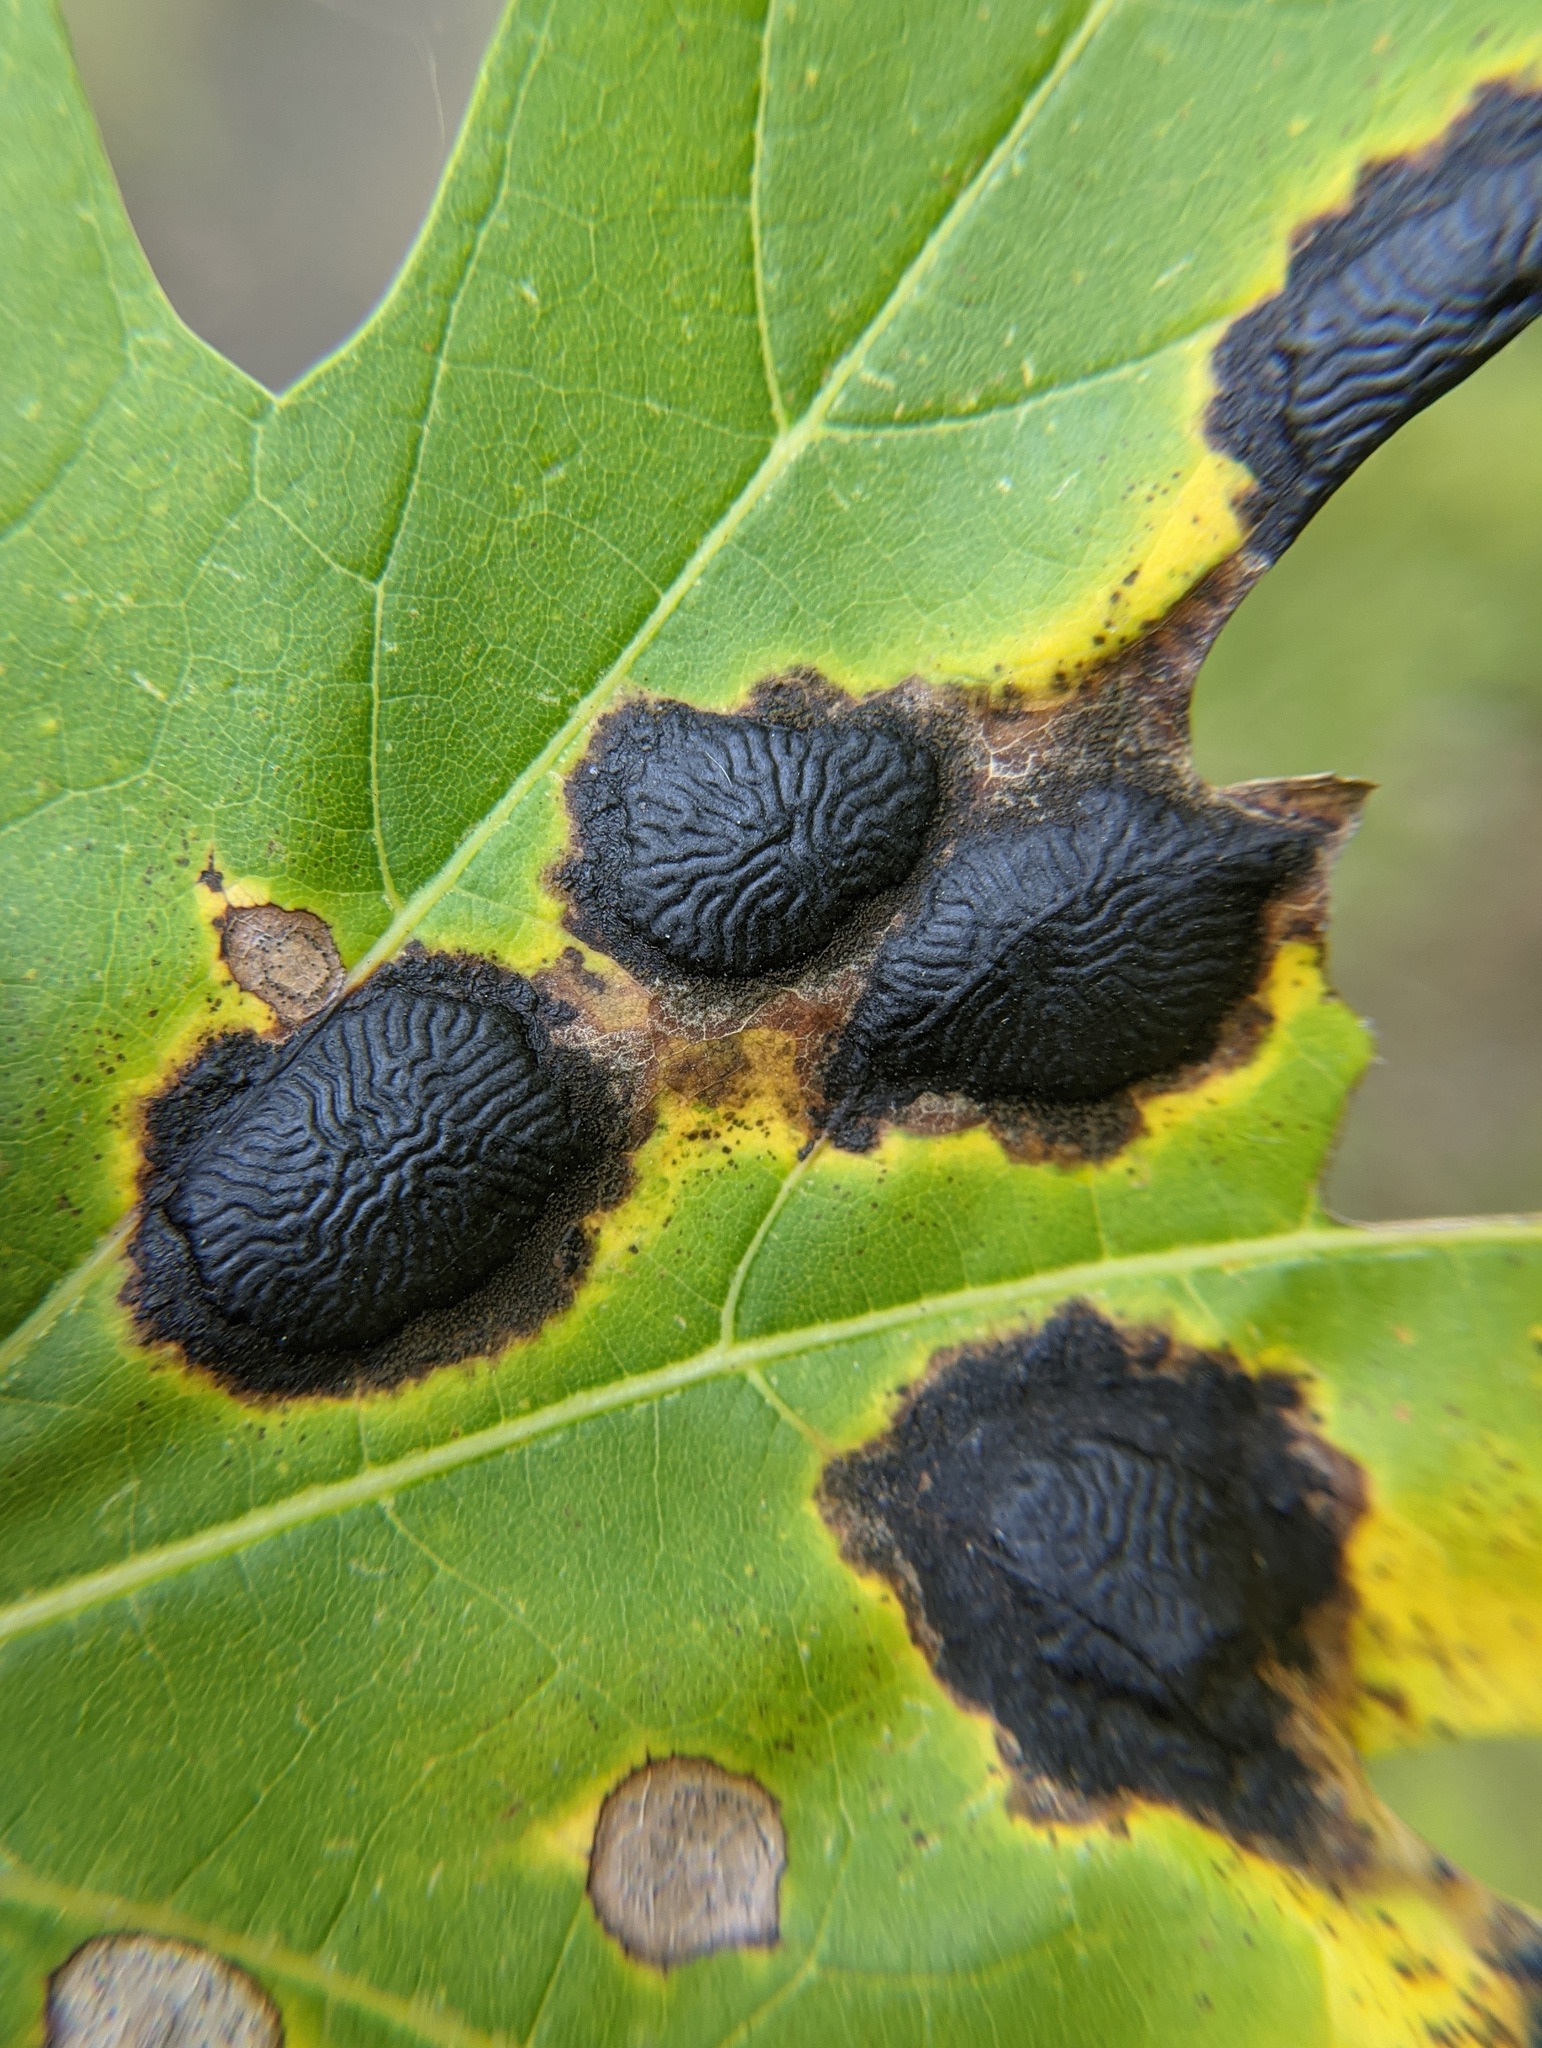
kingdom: Fungi
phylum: Ascomycota
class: Leotiomycetes
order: Rhytismatales
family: Rhytismataceae
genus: Rhytisma
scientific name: Rhytisma americanum
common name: American tar spot
